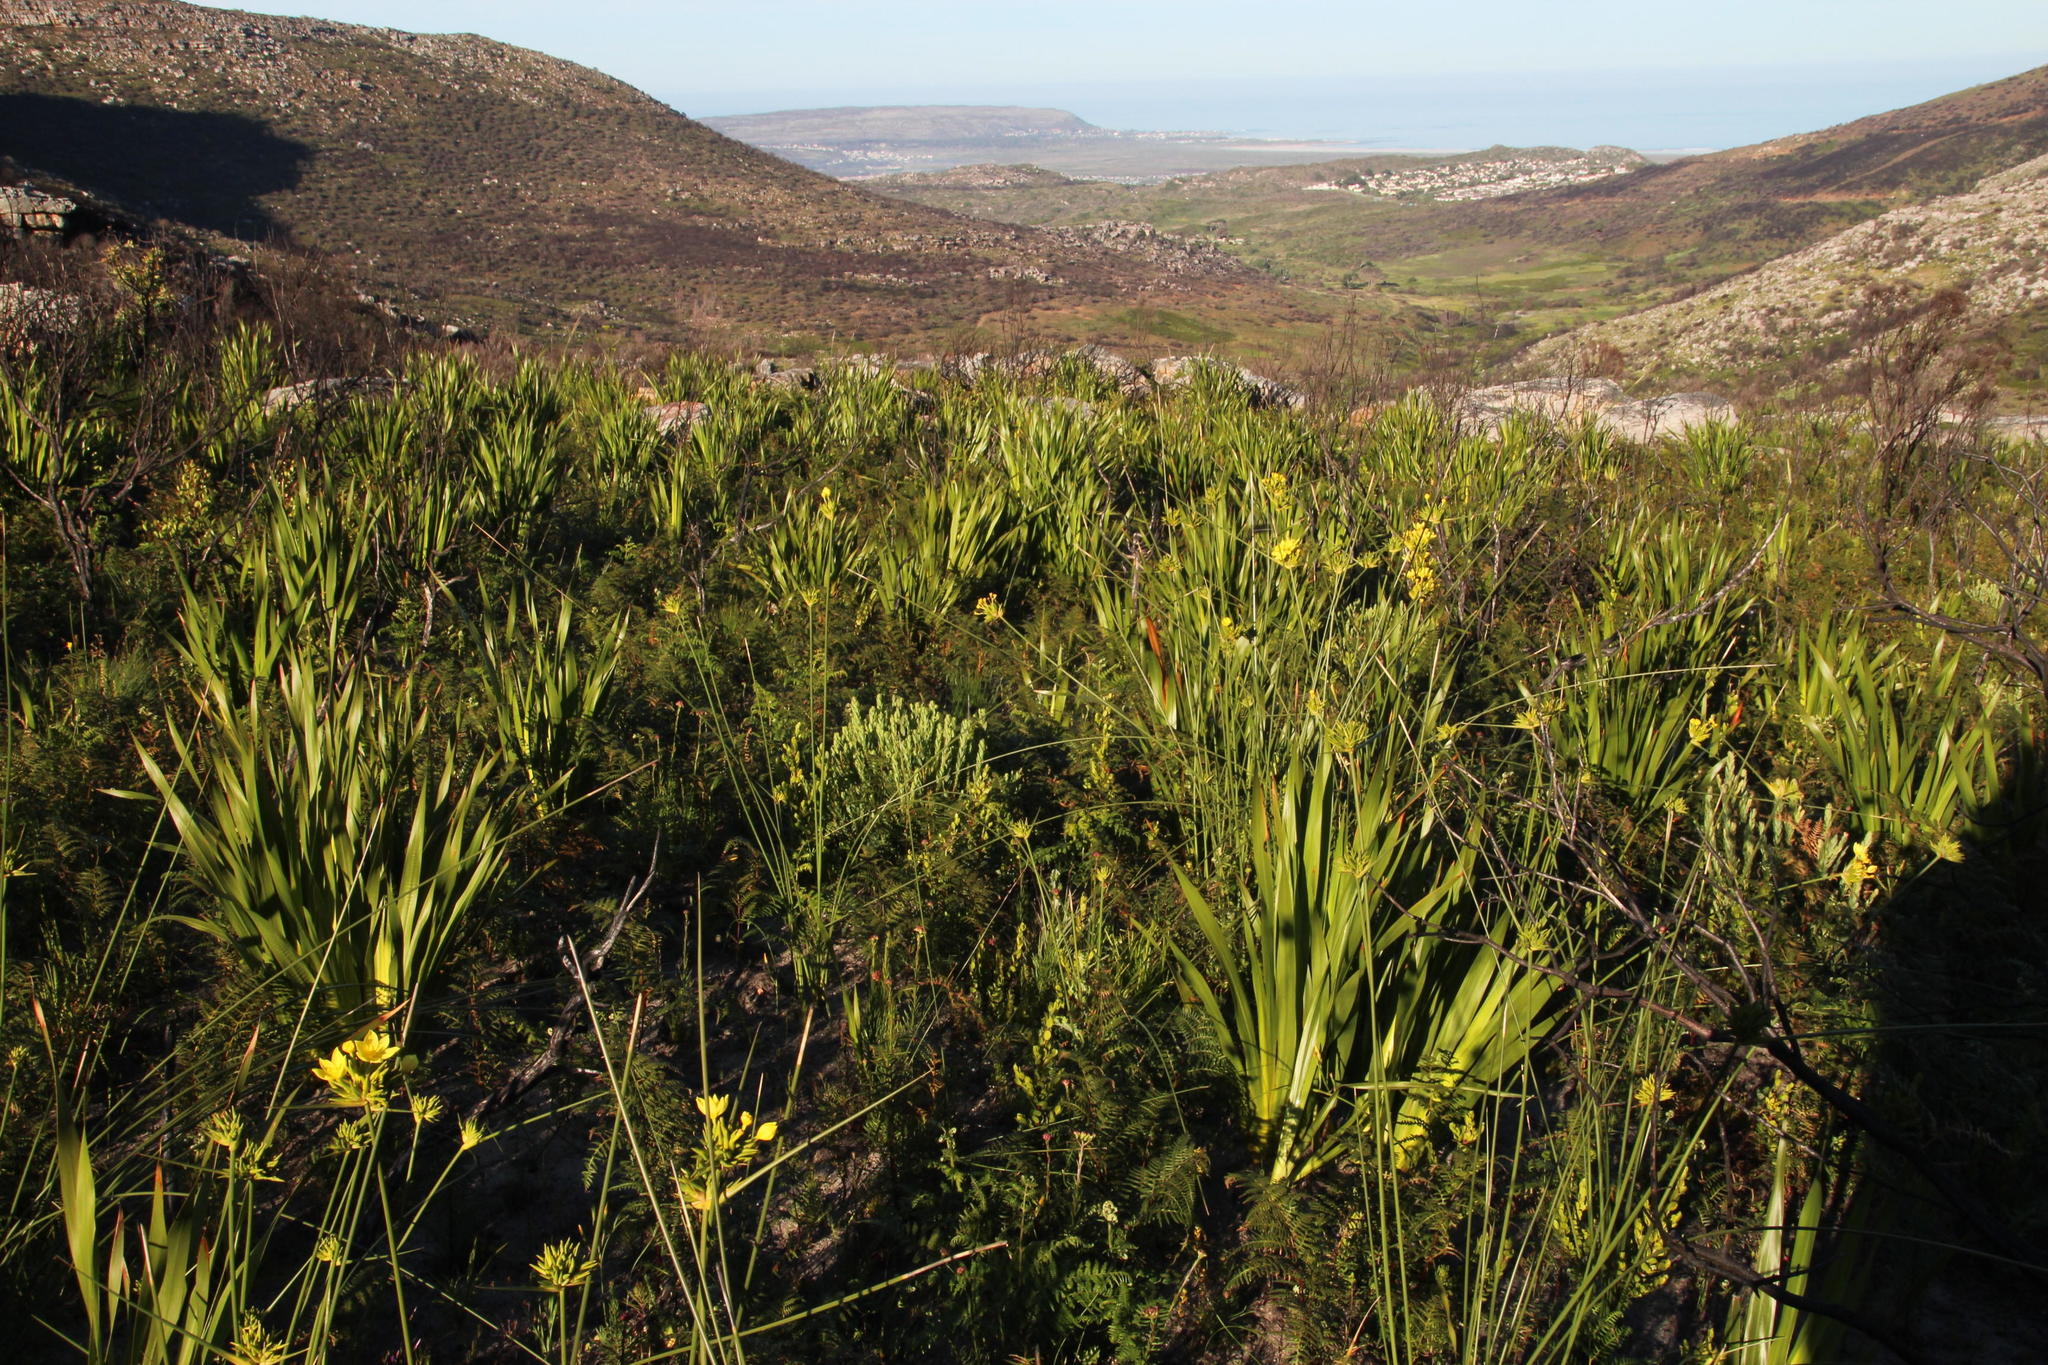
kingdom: Plantae
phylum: Tracheophyta
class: Liliopsida
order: Asparagales
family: Iridaceae
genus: Bobartia
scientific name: Bobartia indica
